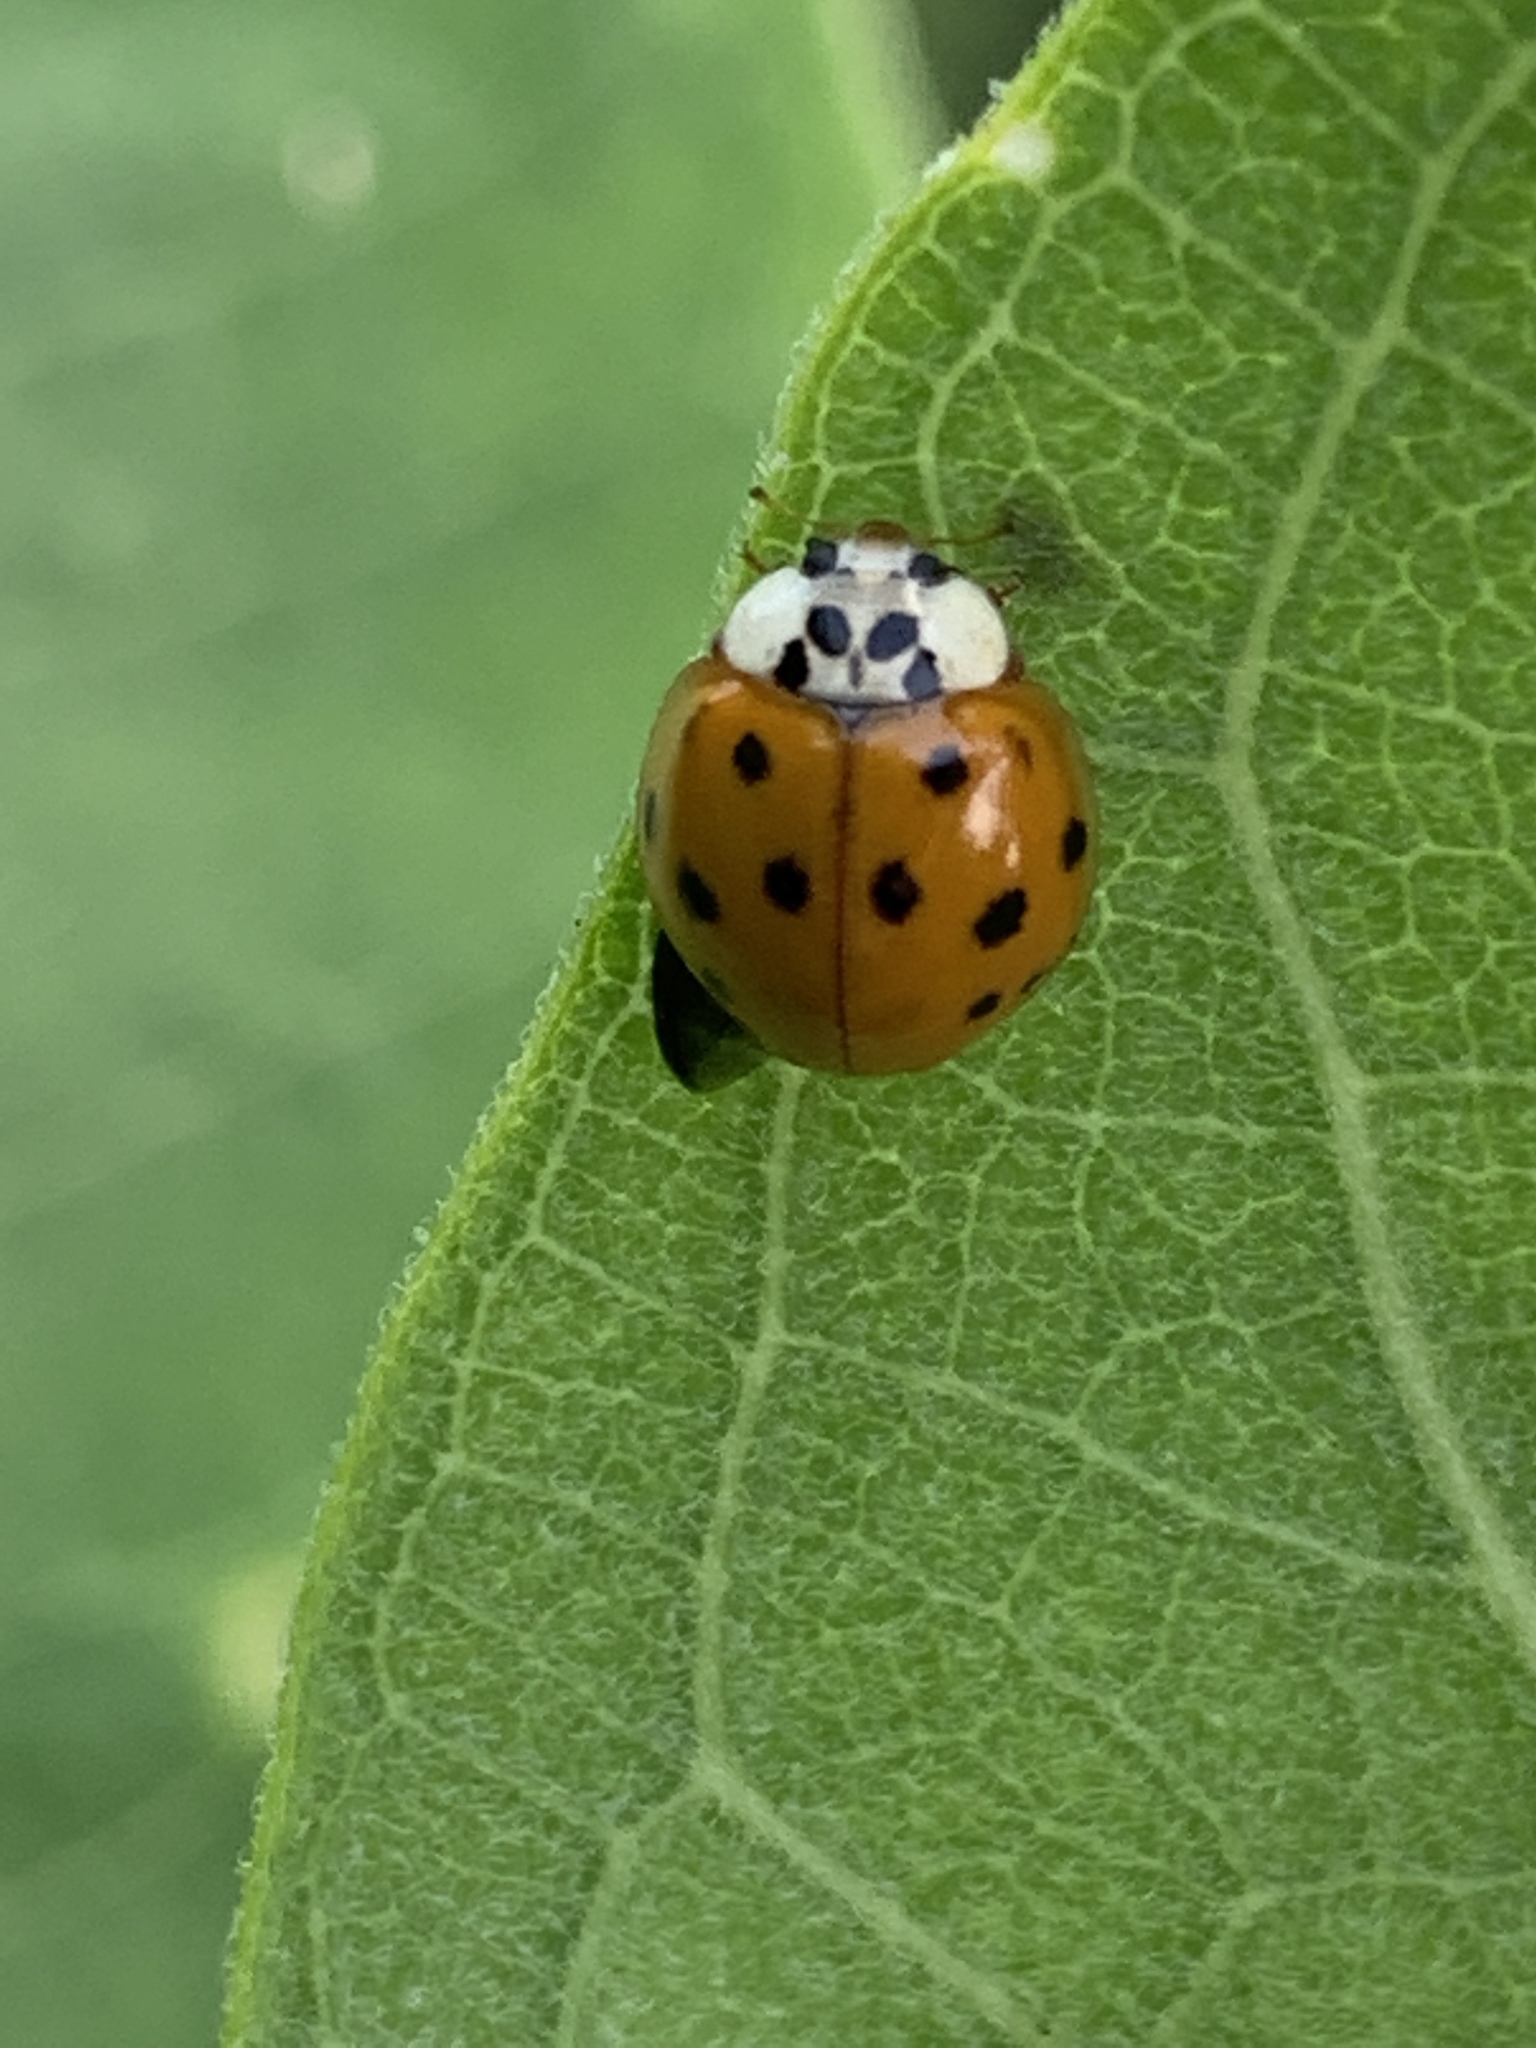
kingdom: Animalia
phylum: Arthropoda
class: Insecta
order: Coleoptera
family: Coccinellidae
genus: Harmonia
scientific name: Harmonia axyridis
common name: Harlequin ladybird
